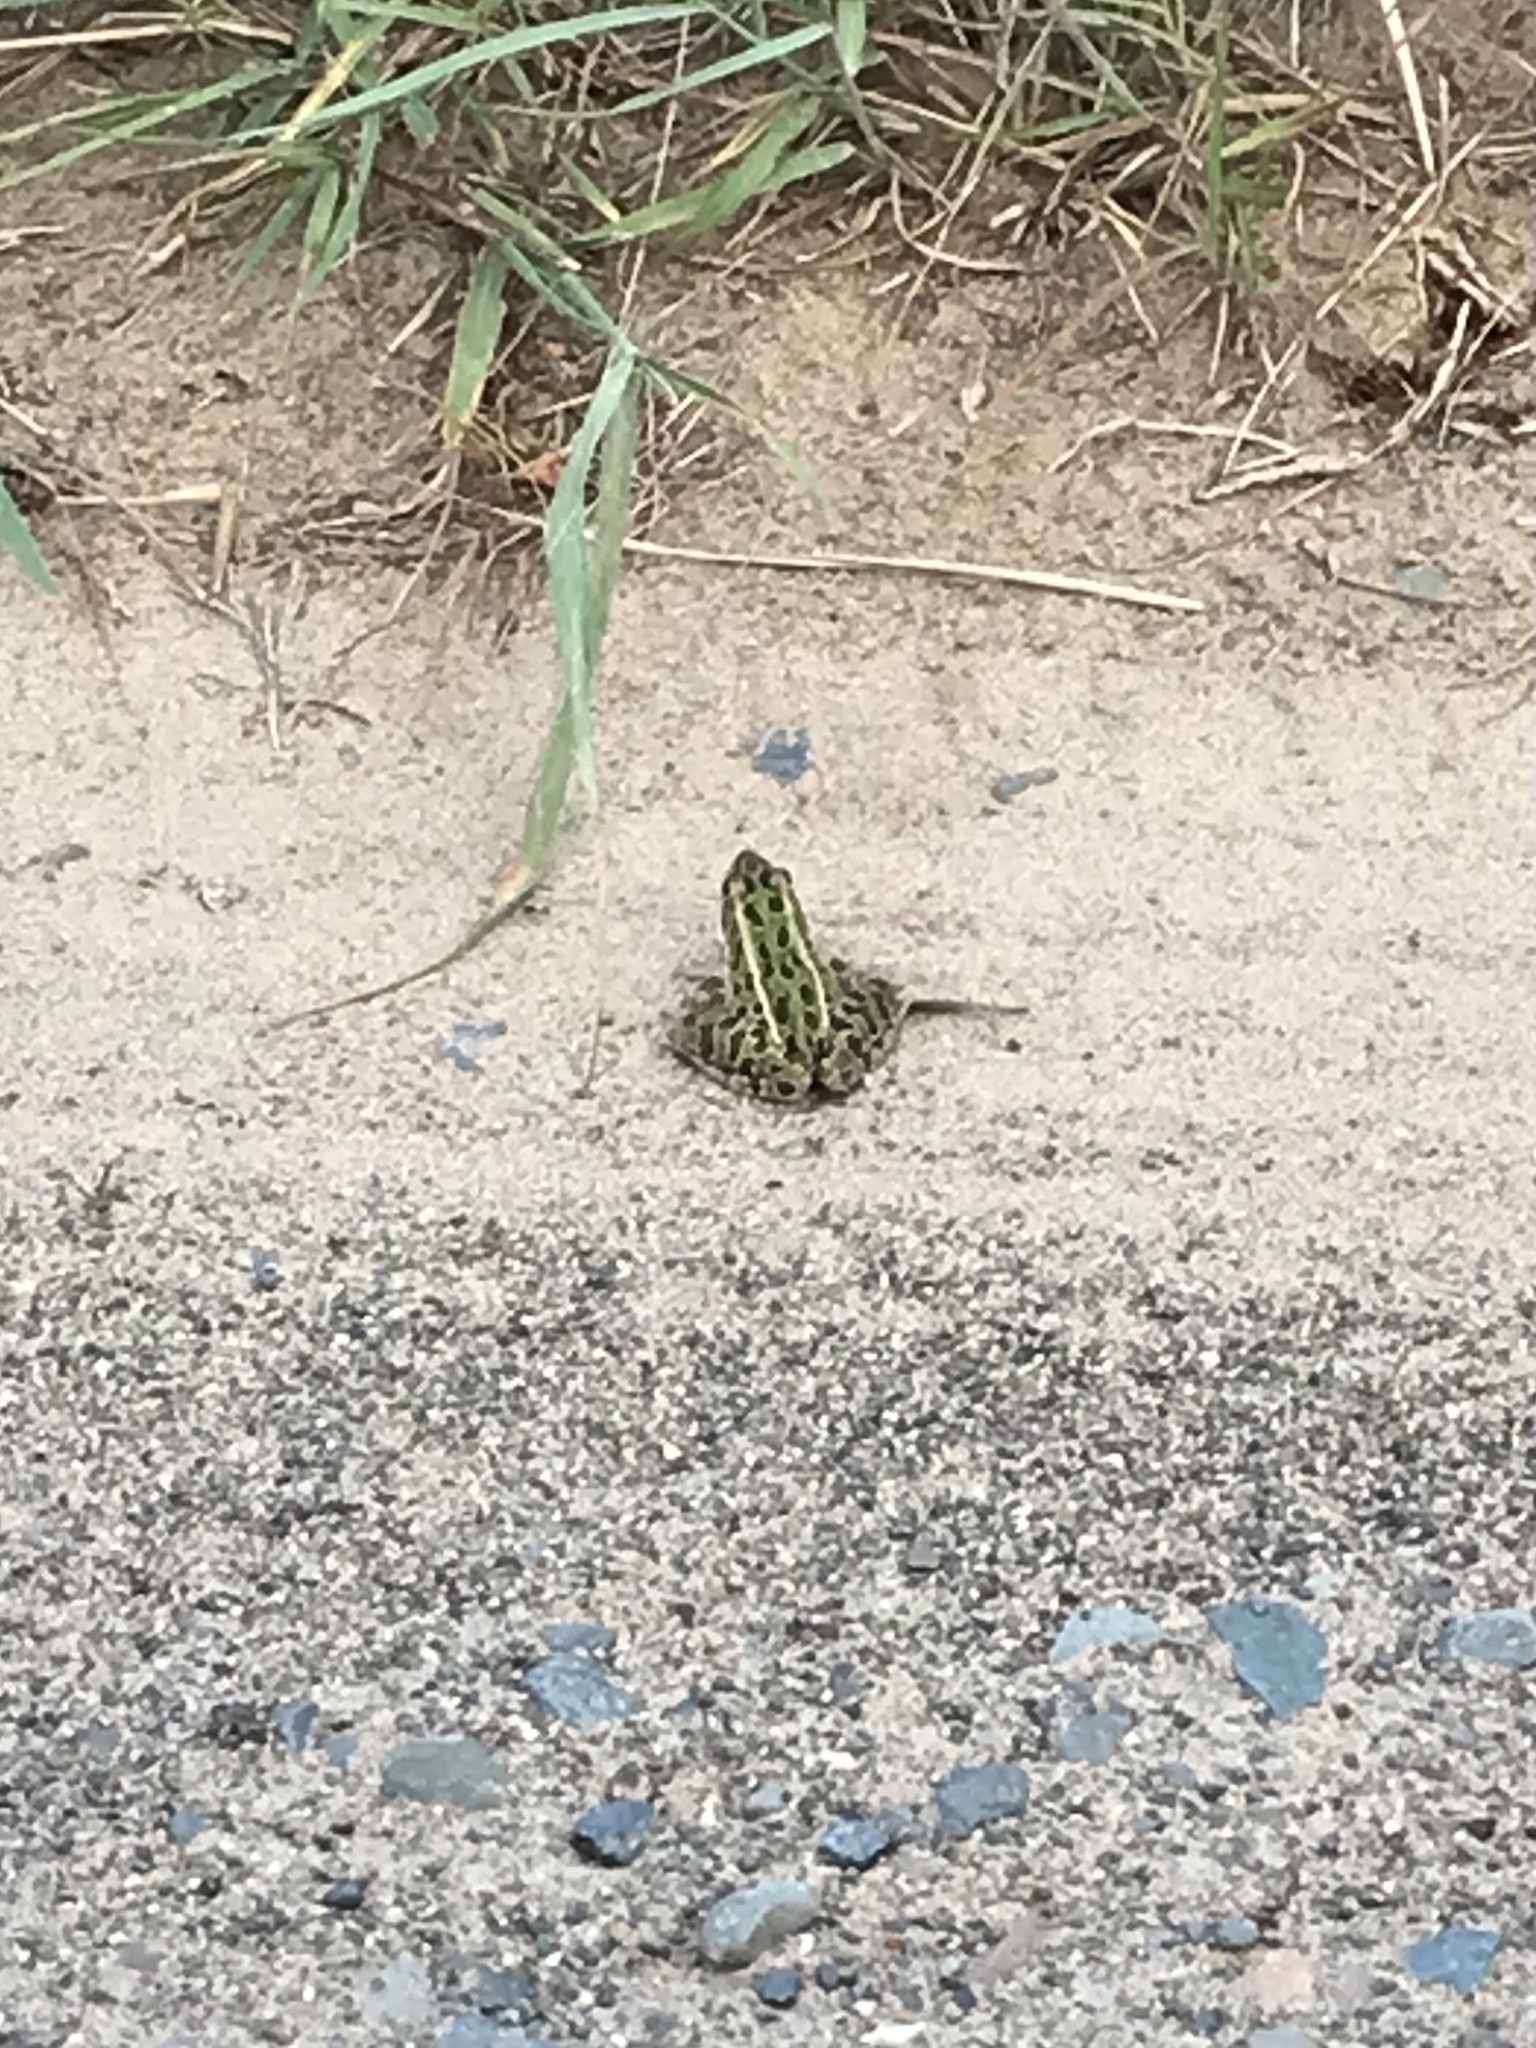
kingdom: Animalia
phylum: Chordata
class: Amphibia
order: Anura
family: Ranidae
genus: Lithobates
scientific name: Lithobates pipiens
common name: Northern leopard frog
